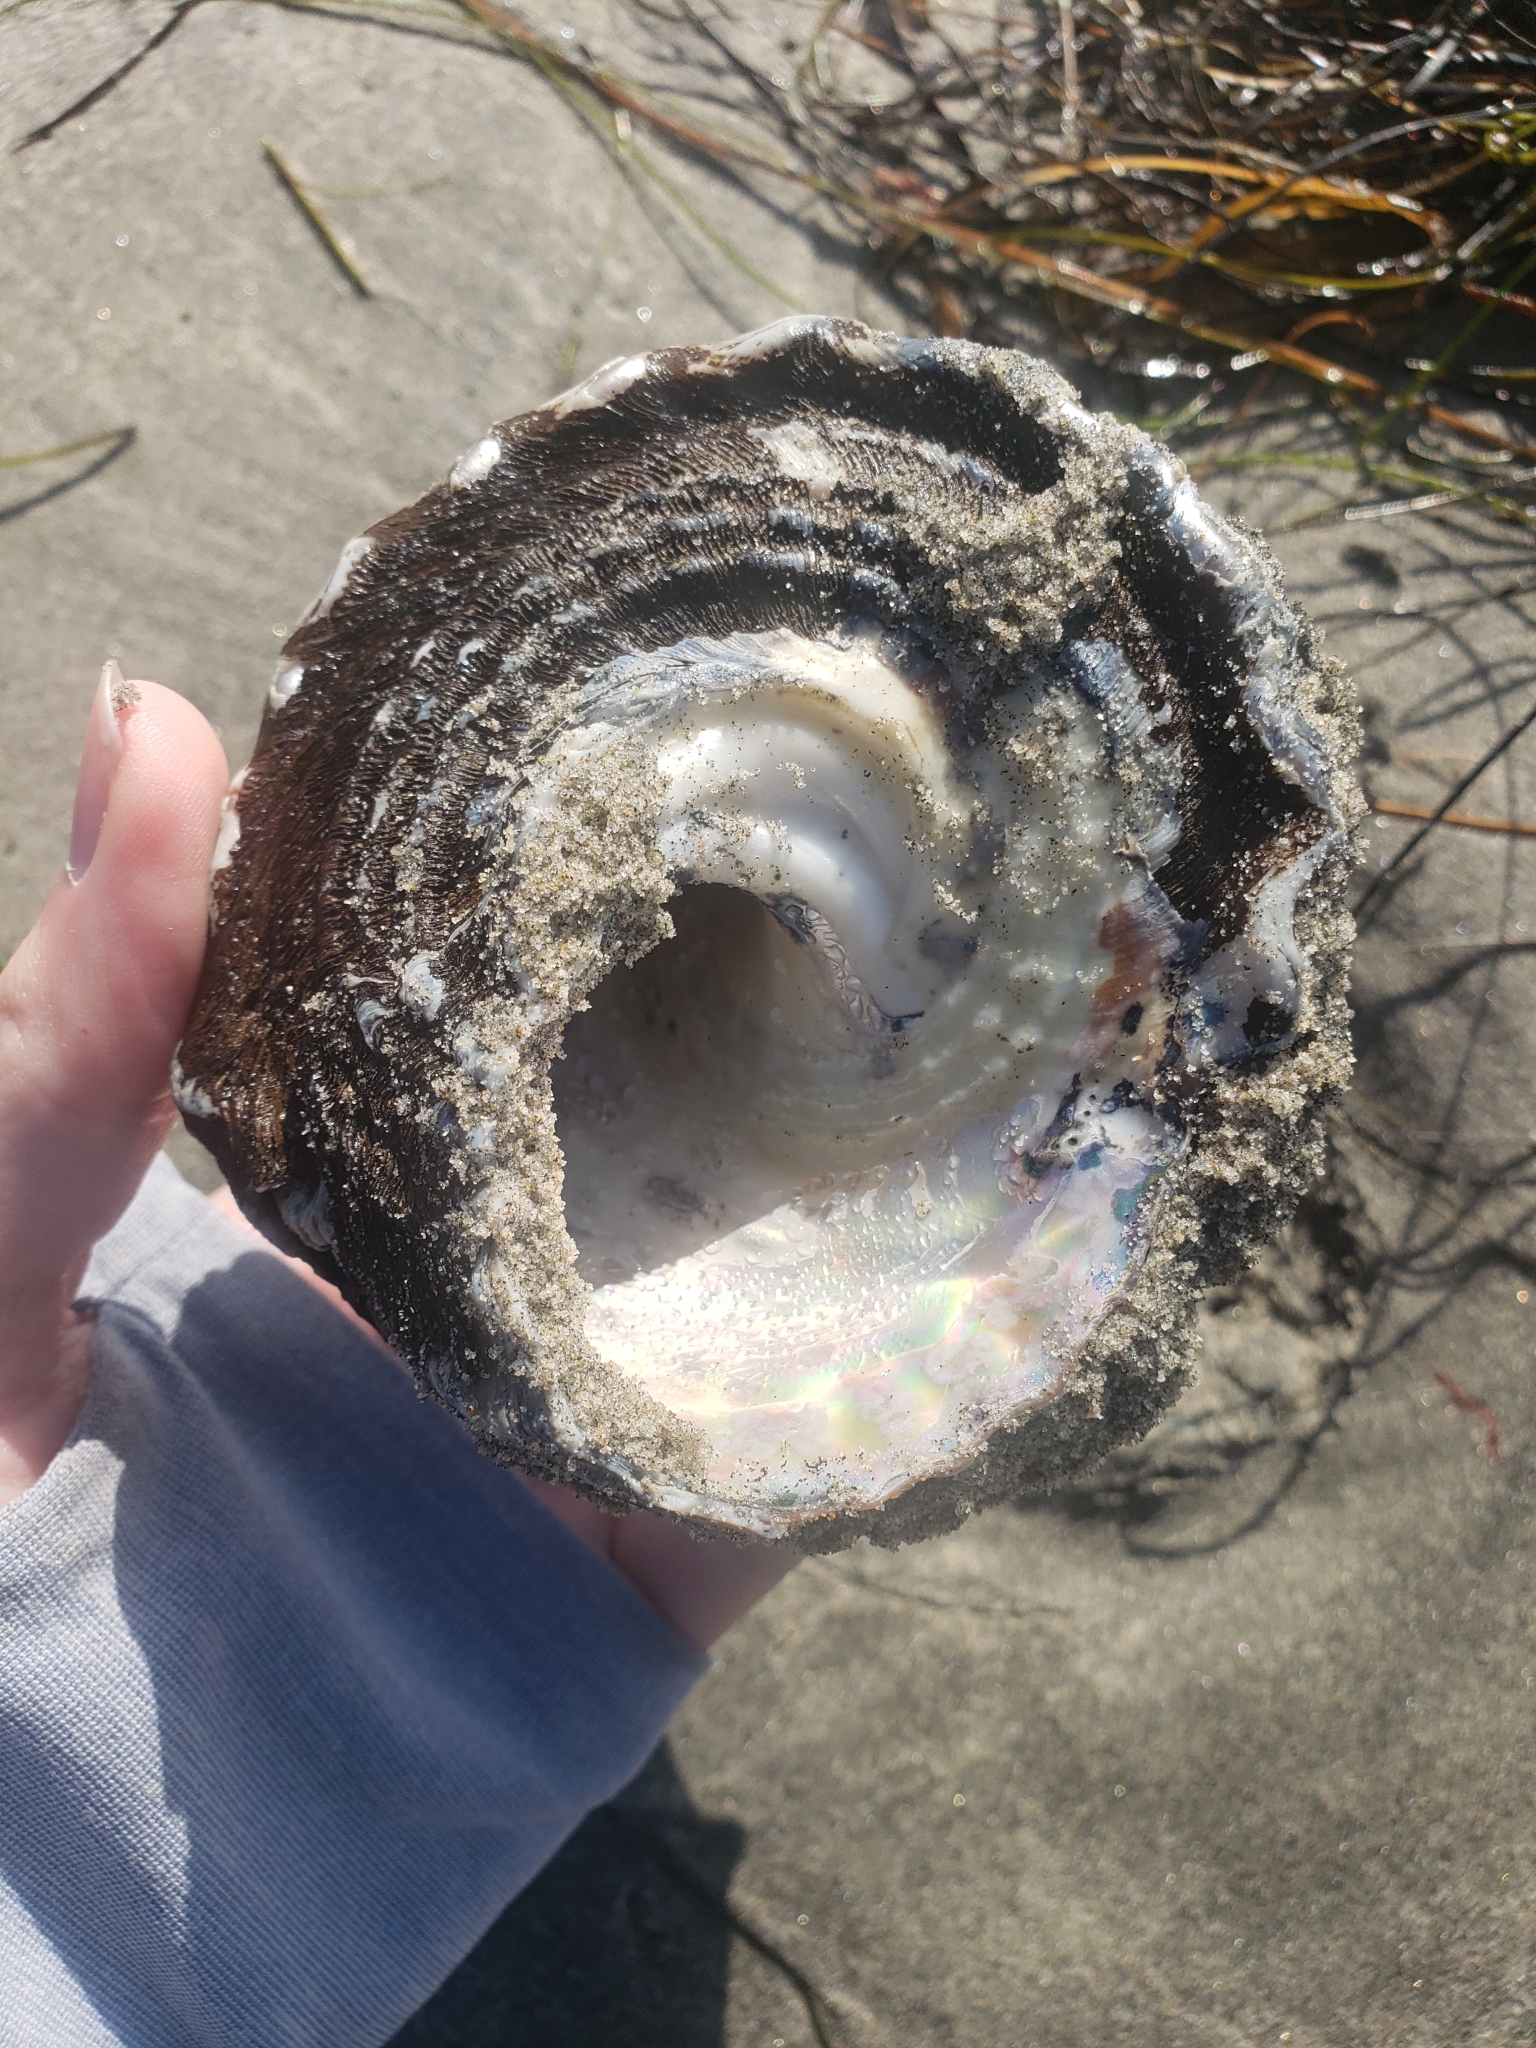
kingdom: Animalia
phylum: Mollusca
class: Gastropoda
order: Trochida
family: Turbinidae
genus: Megastraea
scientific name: Megastraea undosa
